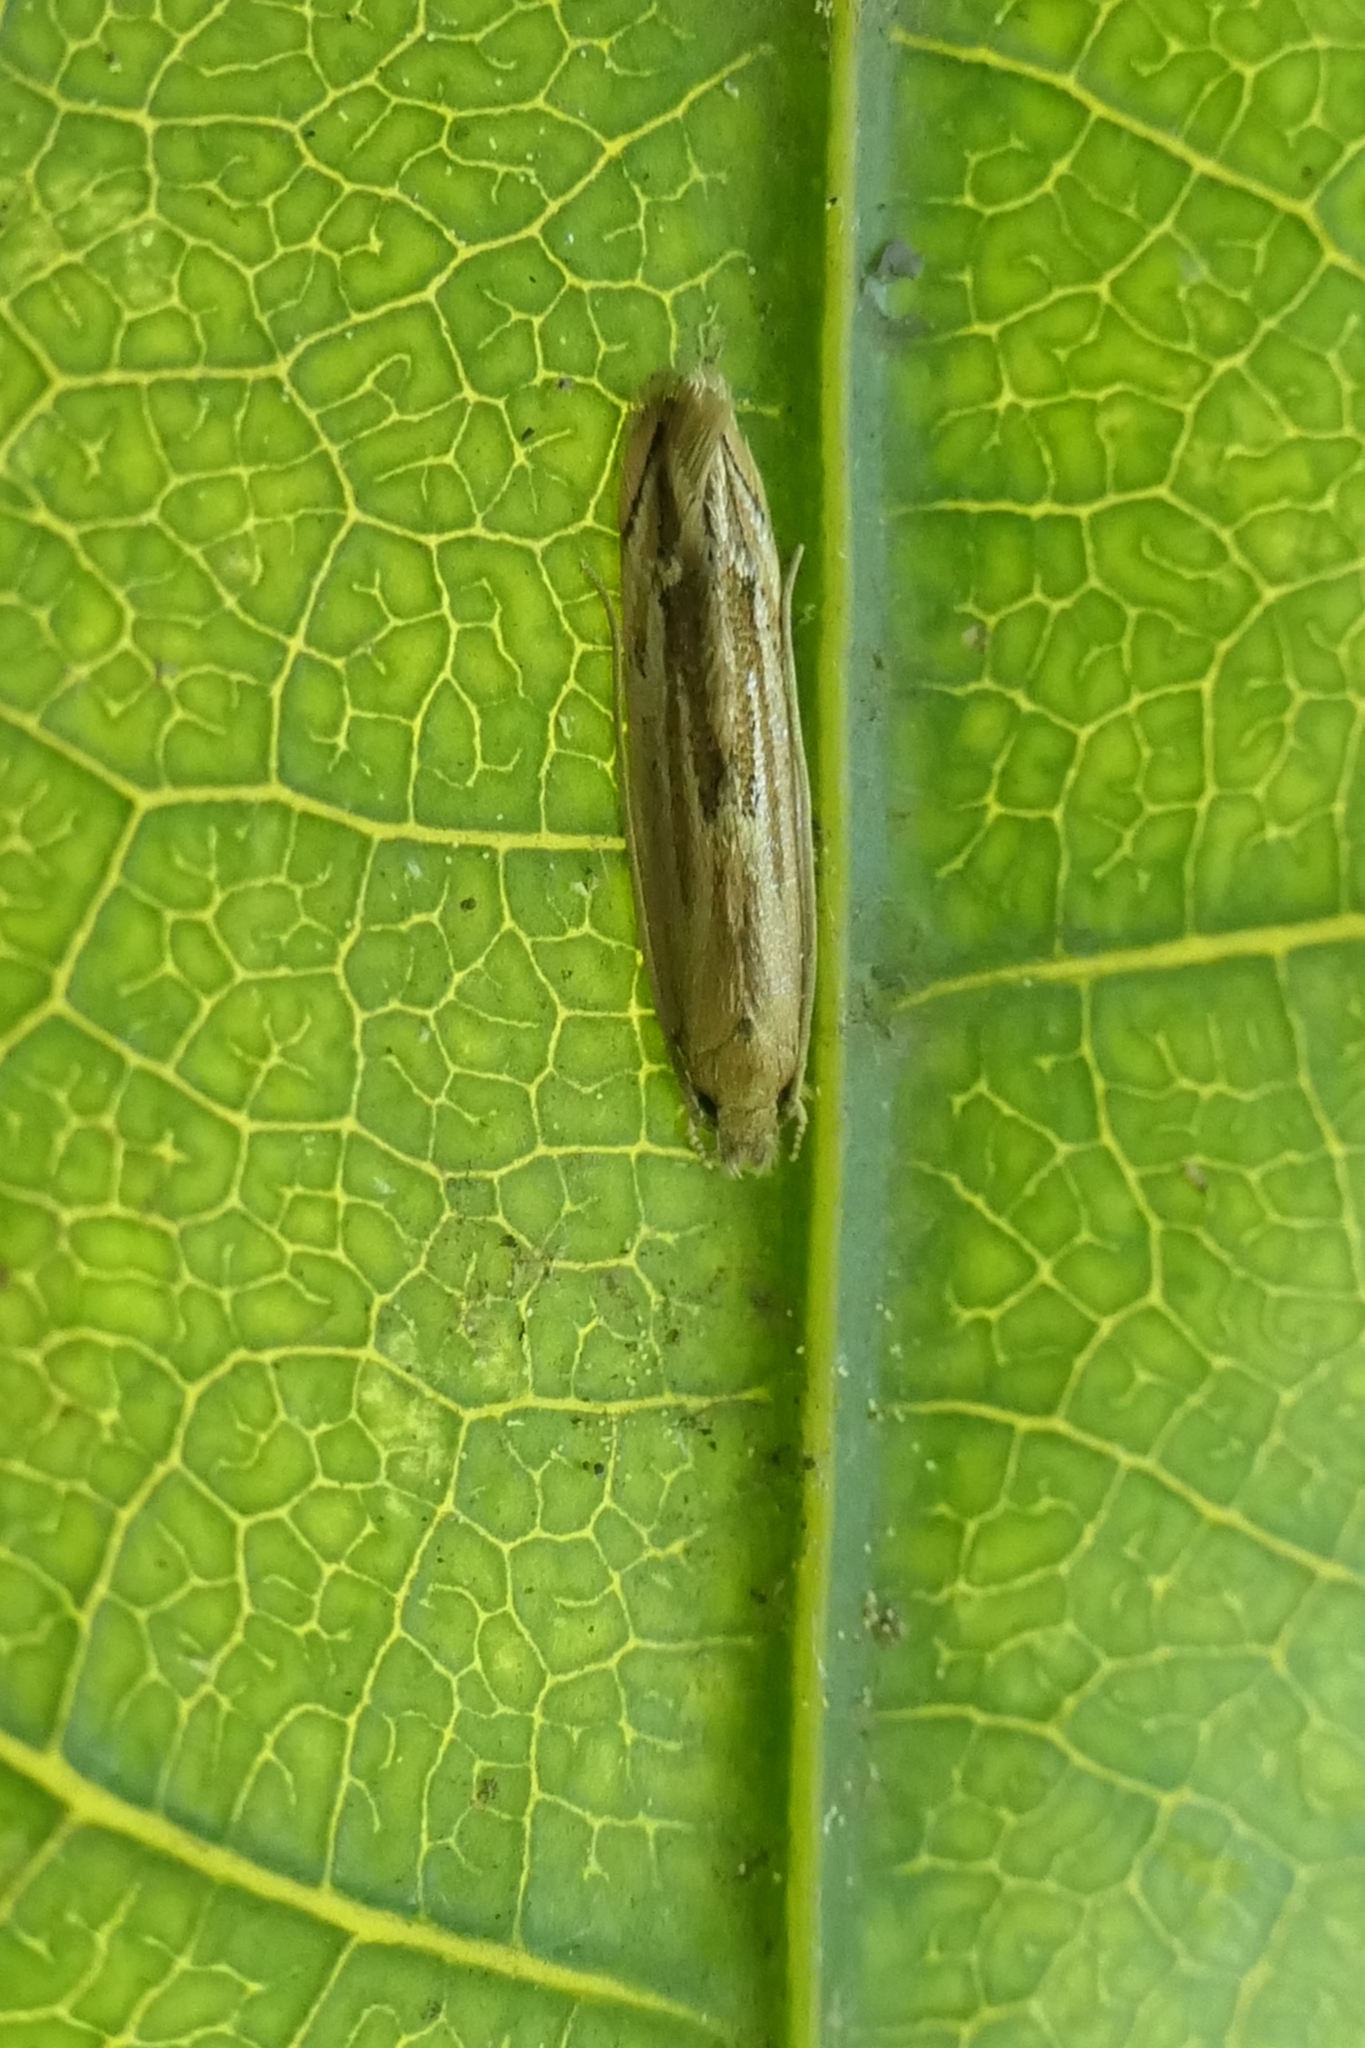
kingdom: Animalia
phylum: Arthropoda
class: Insecta
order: Lepidoptera
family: Tineidae
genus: Amphixystis
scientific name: Amphixystis hapsimacha
